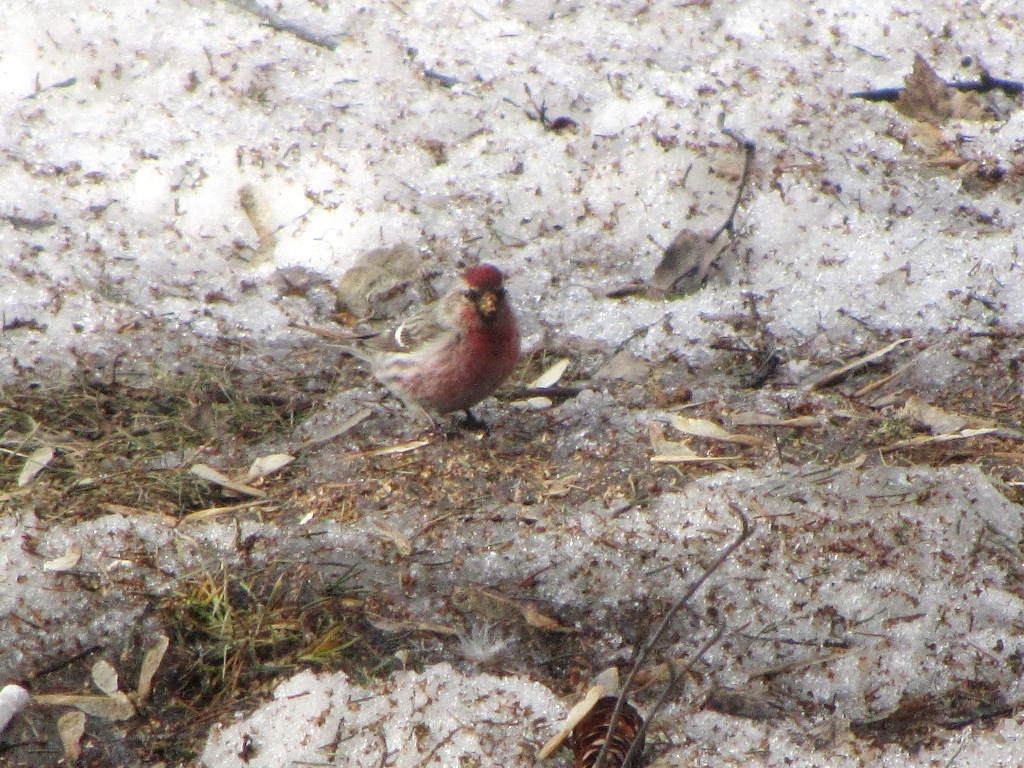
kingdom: Animalia
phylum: Chordata
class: Aves
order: Passeriformes
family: Fringillidae
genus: Acanthis
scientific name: Acanthis flammea
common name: Common redpoll
